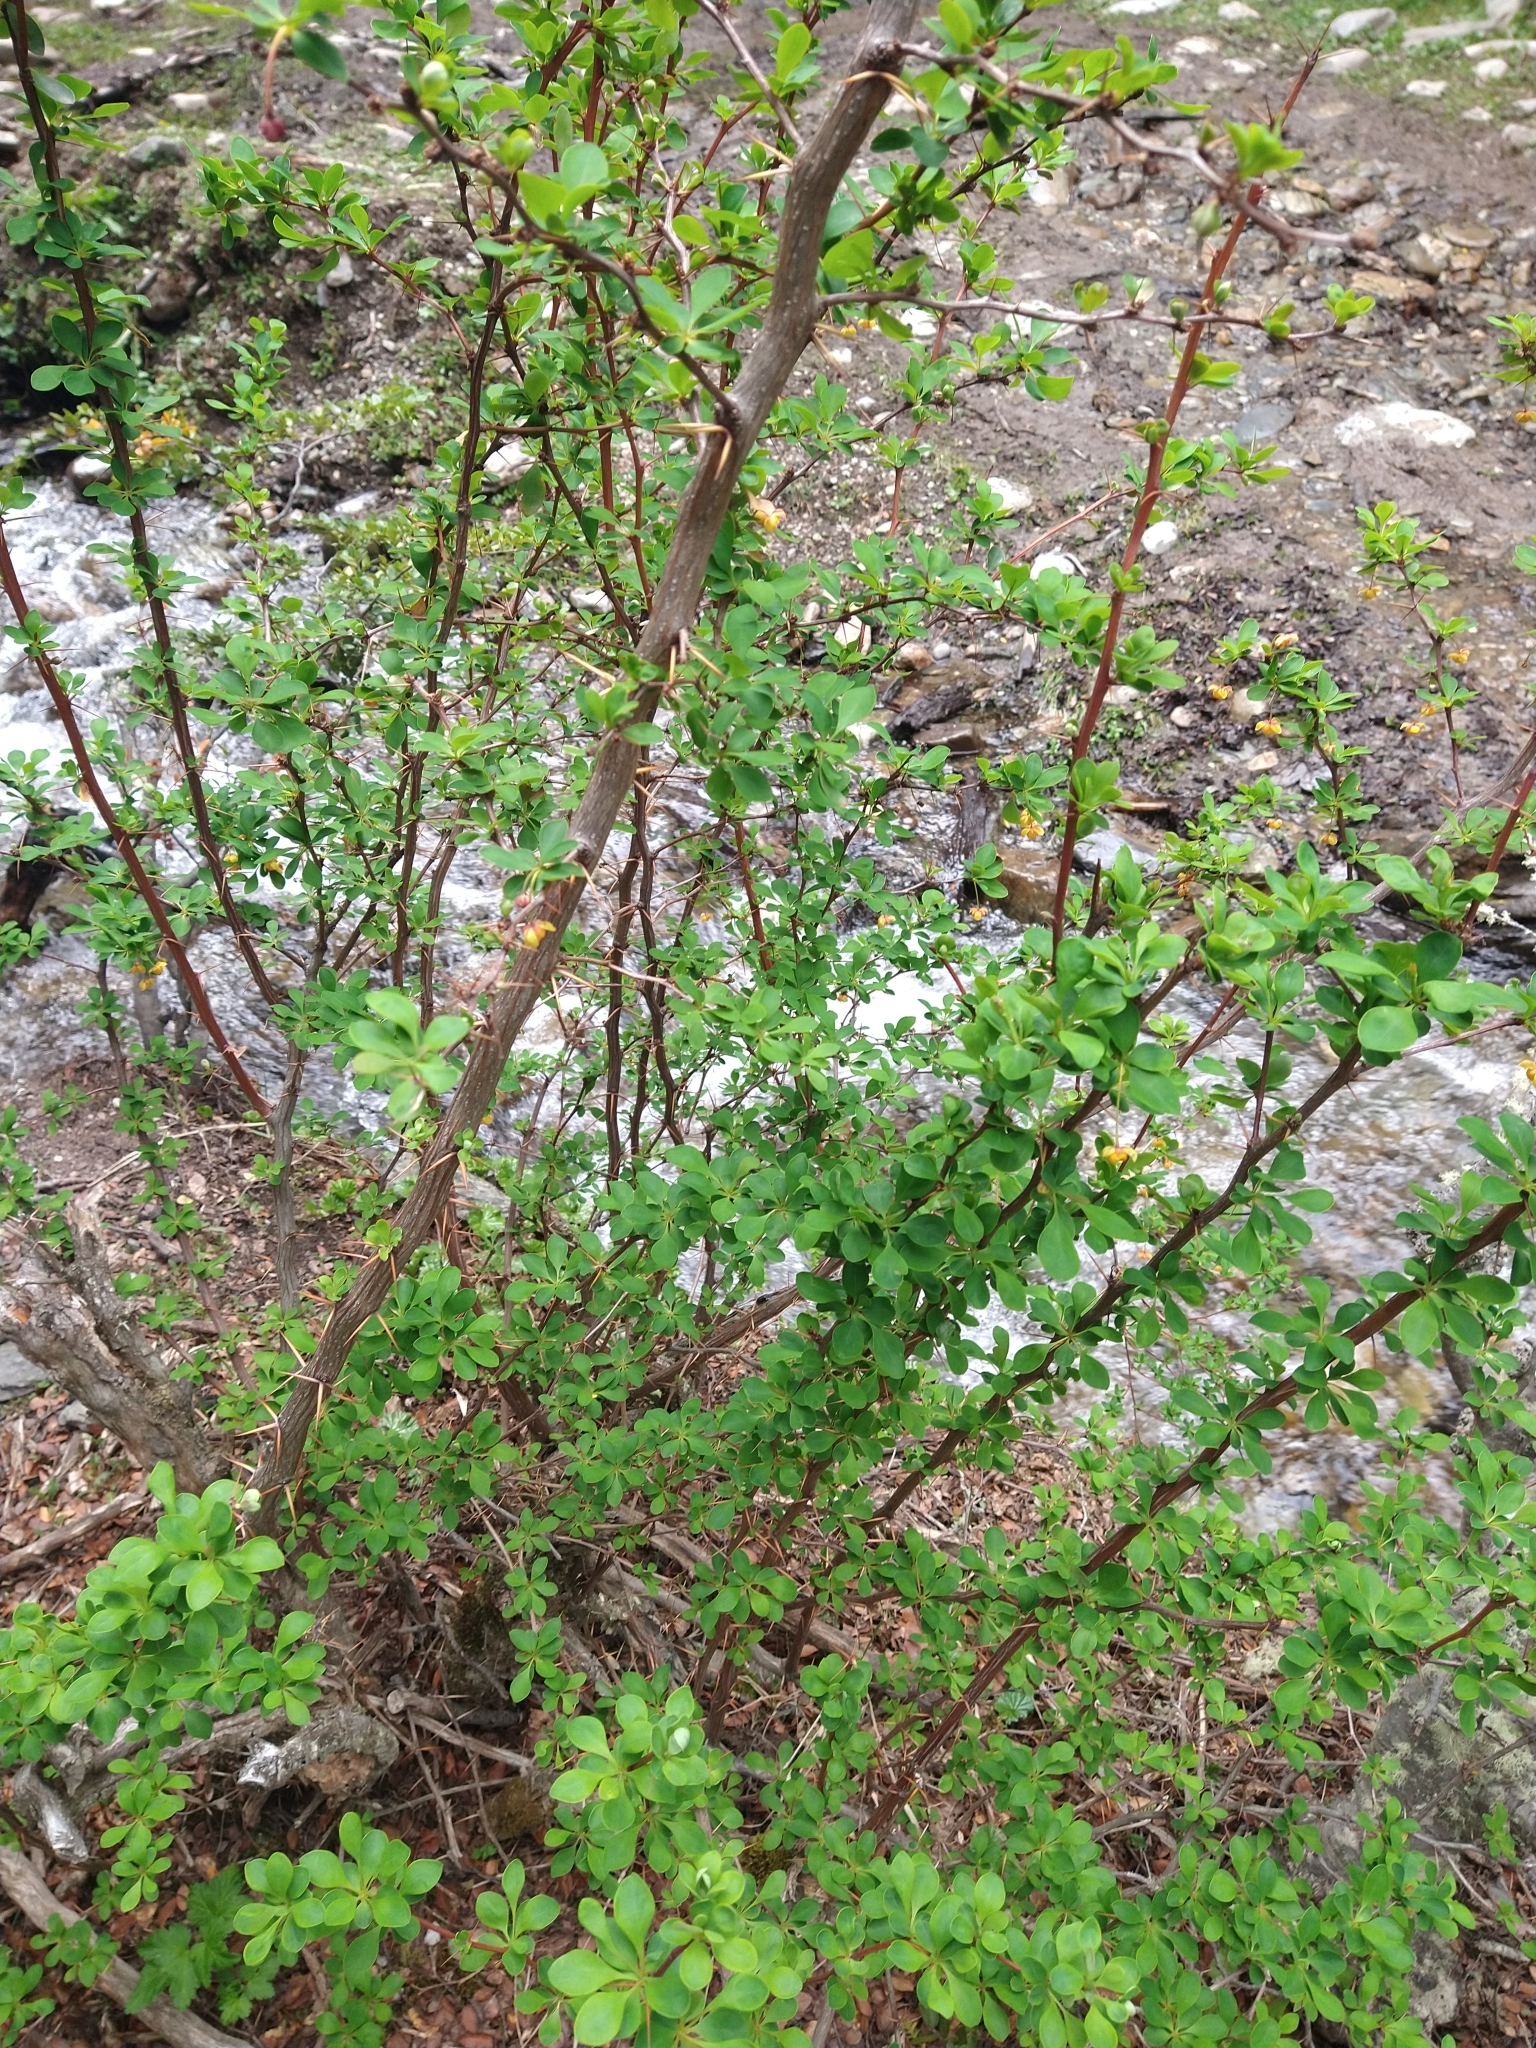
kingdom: Plantae
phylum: Tracheophyta
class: Magnoliopsida
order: Ranunculales
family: Berberidaceae
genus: Berberis
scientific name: Berberis microphylla
